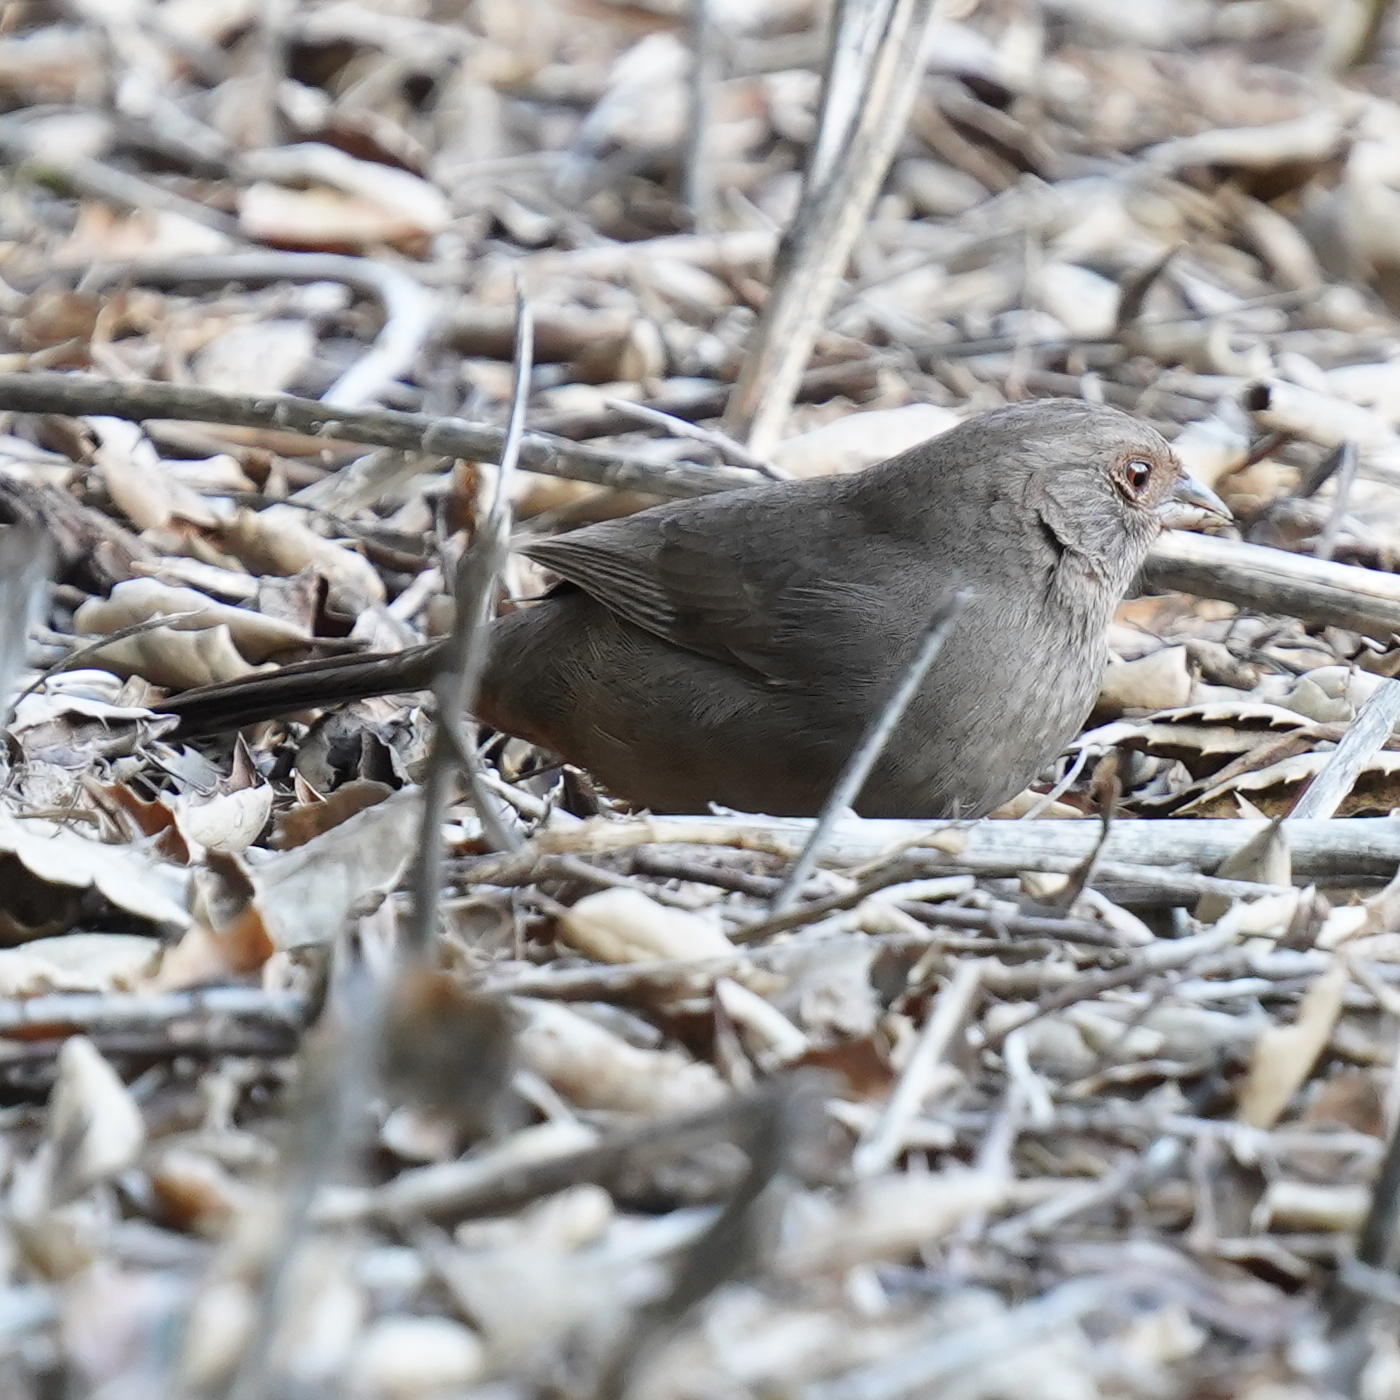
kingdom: Animalia
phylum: Chordata
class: Aves
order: Passeriformes
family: Passerellidae
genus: Melozone
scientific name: Melozone crissalis
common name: California towhee
